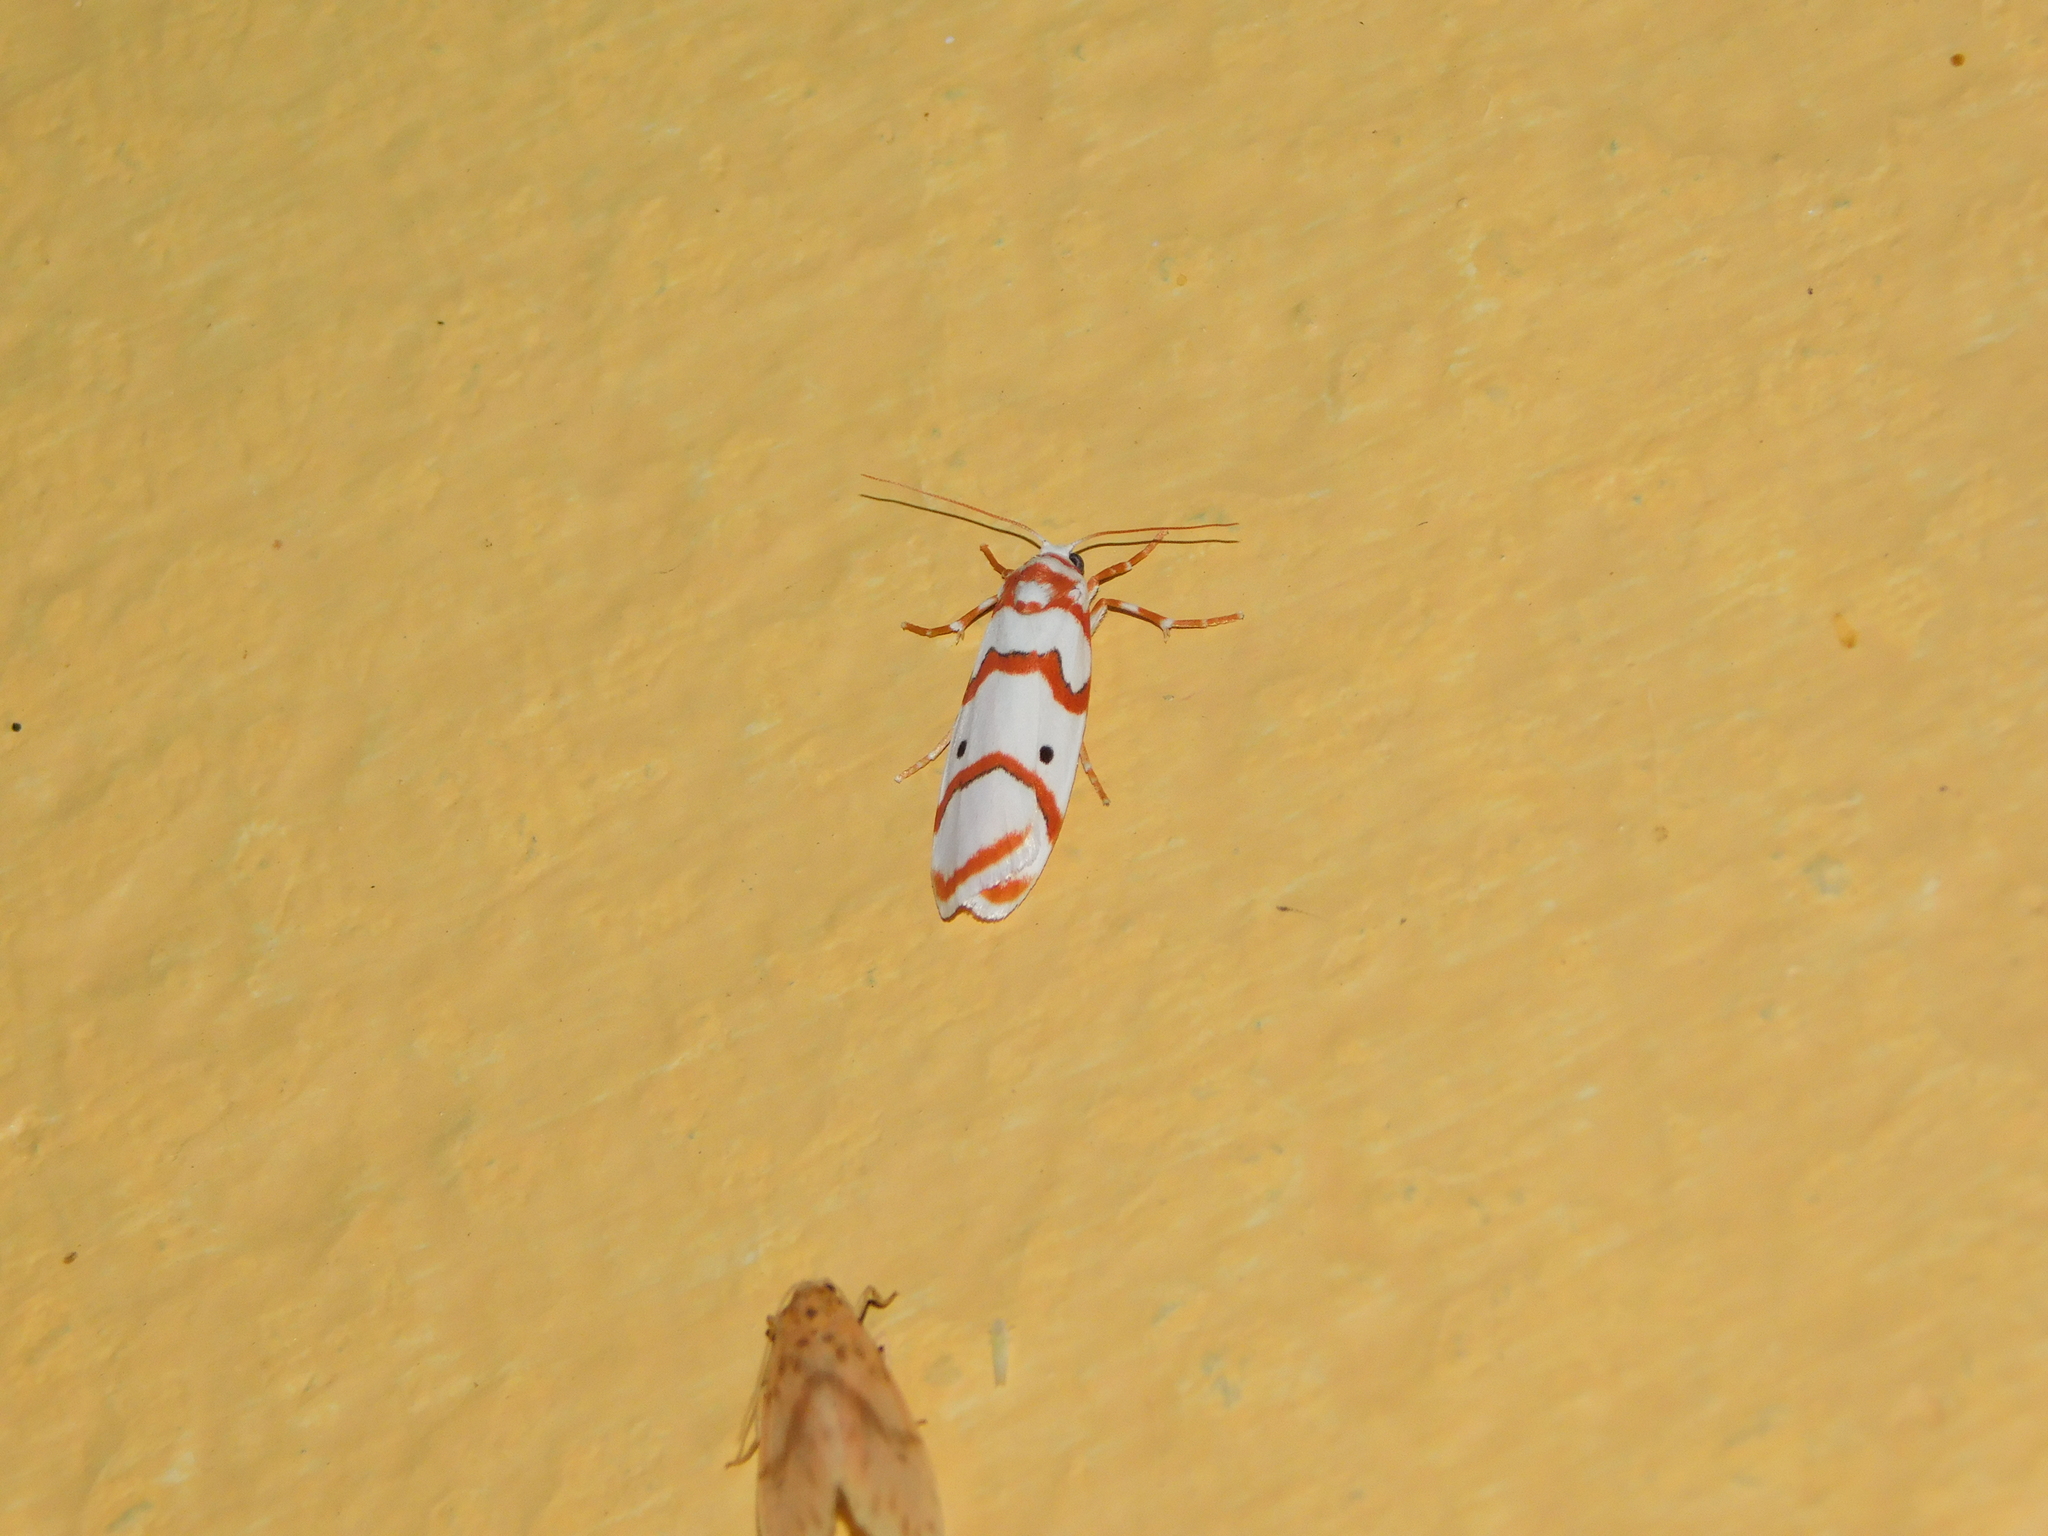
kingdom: Animalia
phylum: Arthropoda
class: Insecta
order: Lepidoptera
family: Erebidae
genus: Cyana
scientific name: Cyana puella
